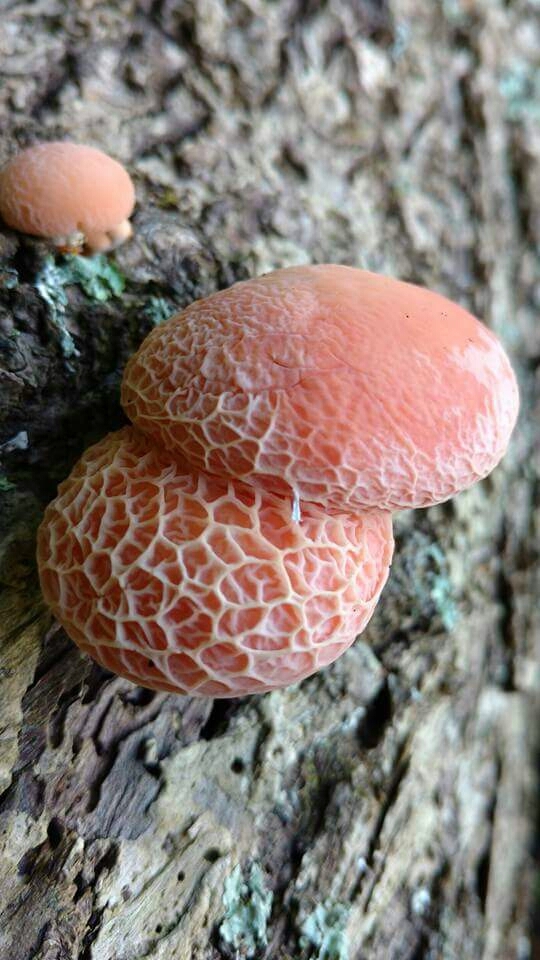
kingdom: Fungi
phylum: Basidiomycota
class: Agaricomycetes
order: Agaricales
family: Physalacriaceae
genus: Rhodotus
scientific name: Rhodotus palmatus
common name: Wrinkled peach
